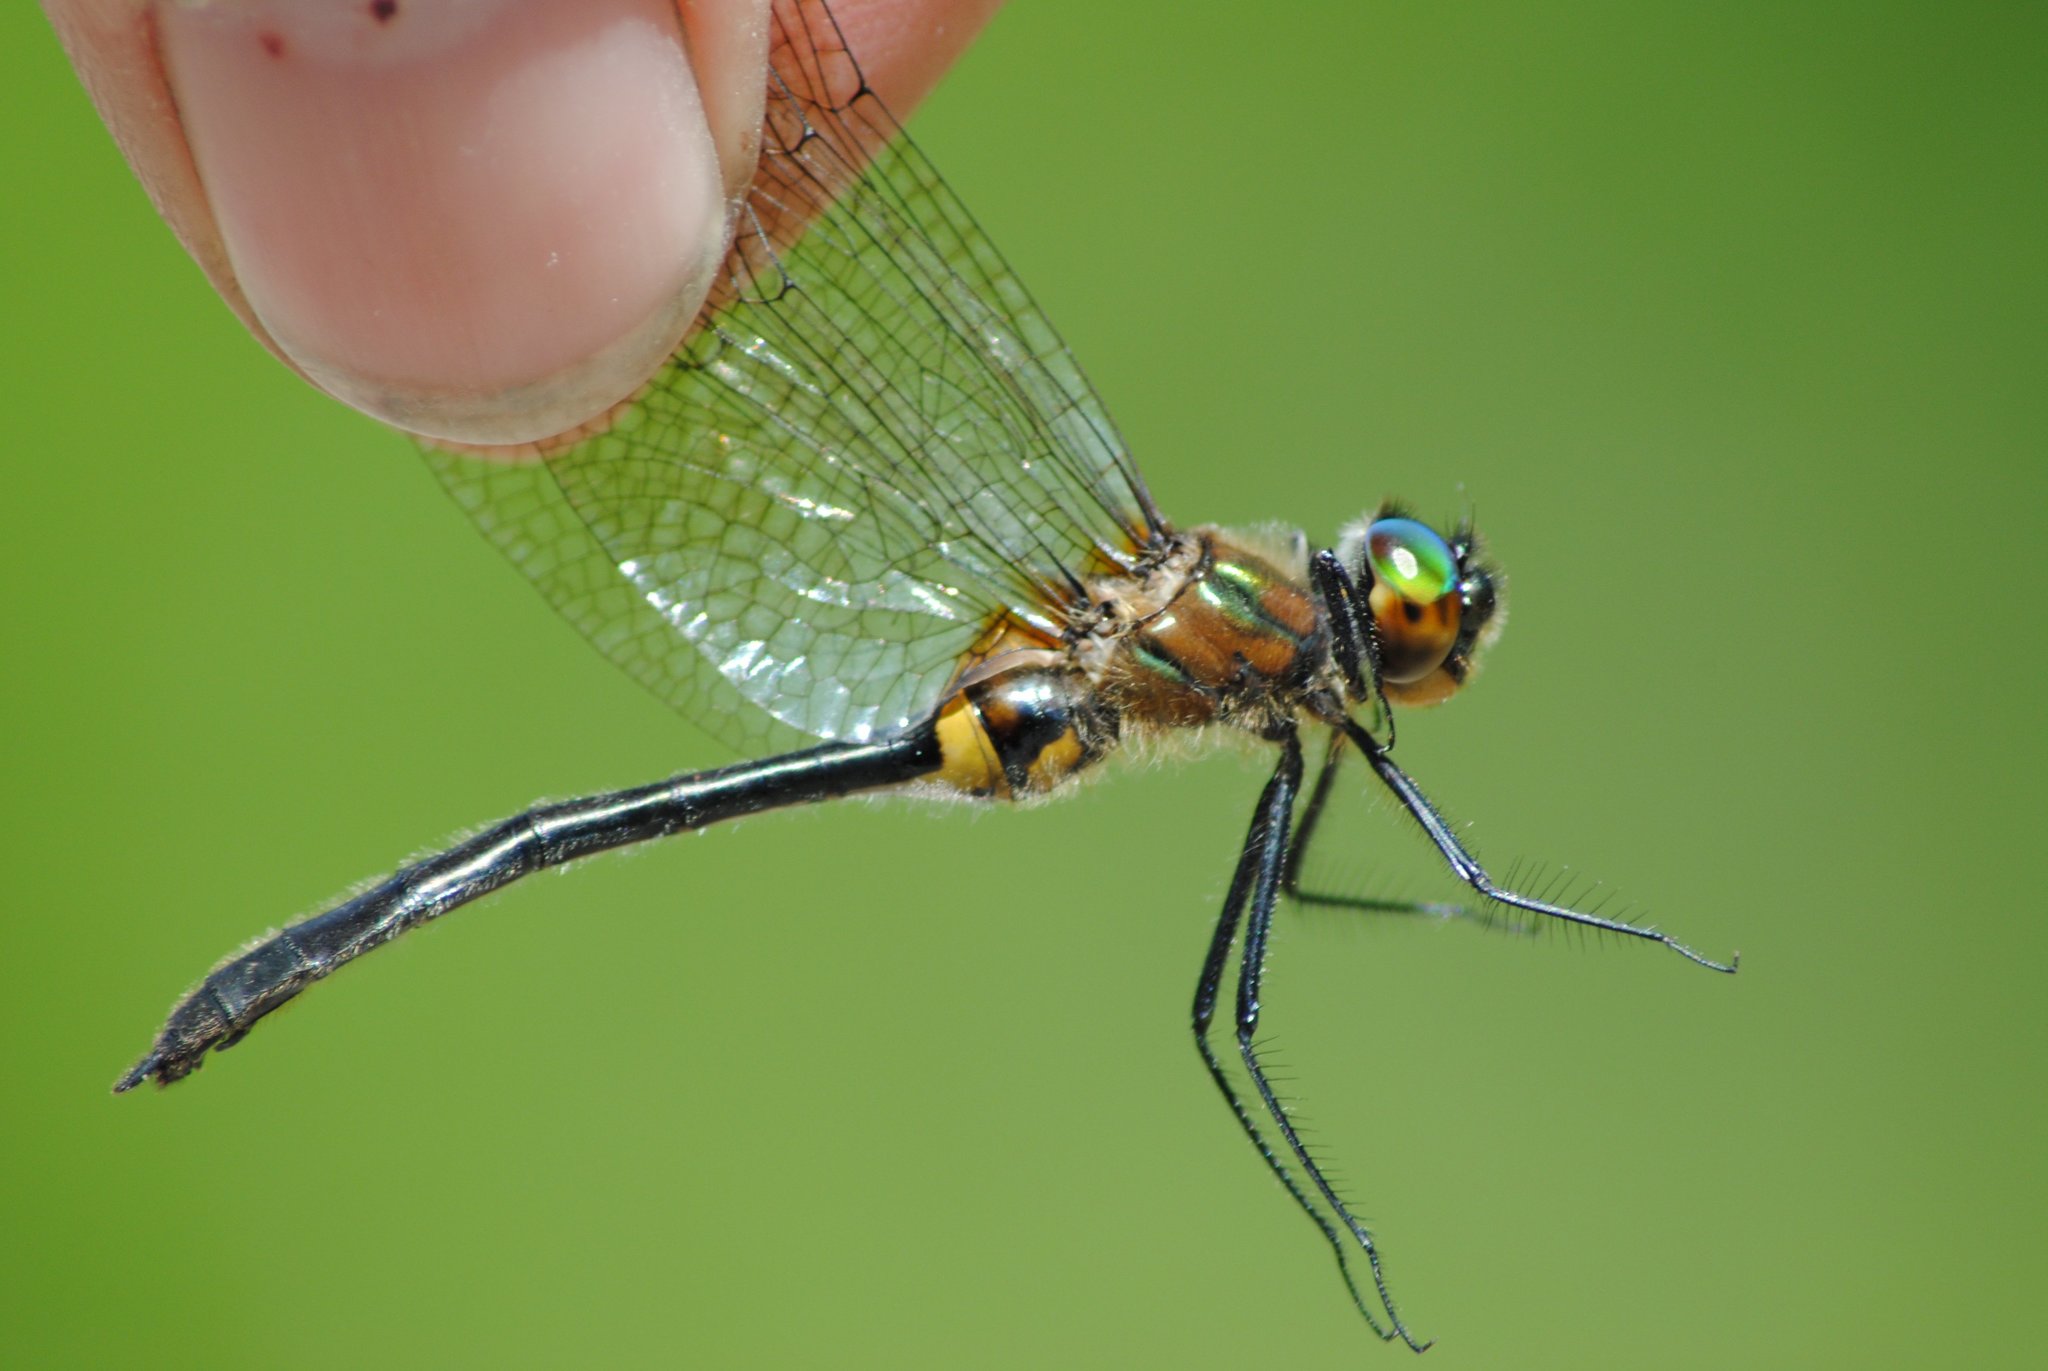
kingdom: Animalia
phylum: Arthropoda
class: Insecta
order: Odonata
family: Corduliidae
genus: Dorocordulia
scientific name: Dorocordulia libera
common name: Racket-tailed emerald
